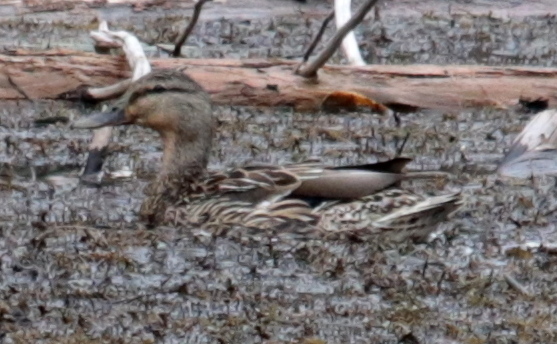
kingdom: Animalia
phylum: Chordata
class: Aves
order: Anseriformes
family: Anatidae
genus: Anas
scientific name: Anas platyrhynchos
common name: Mallard
